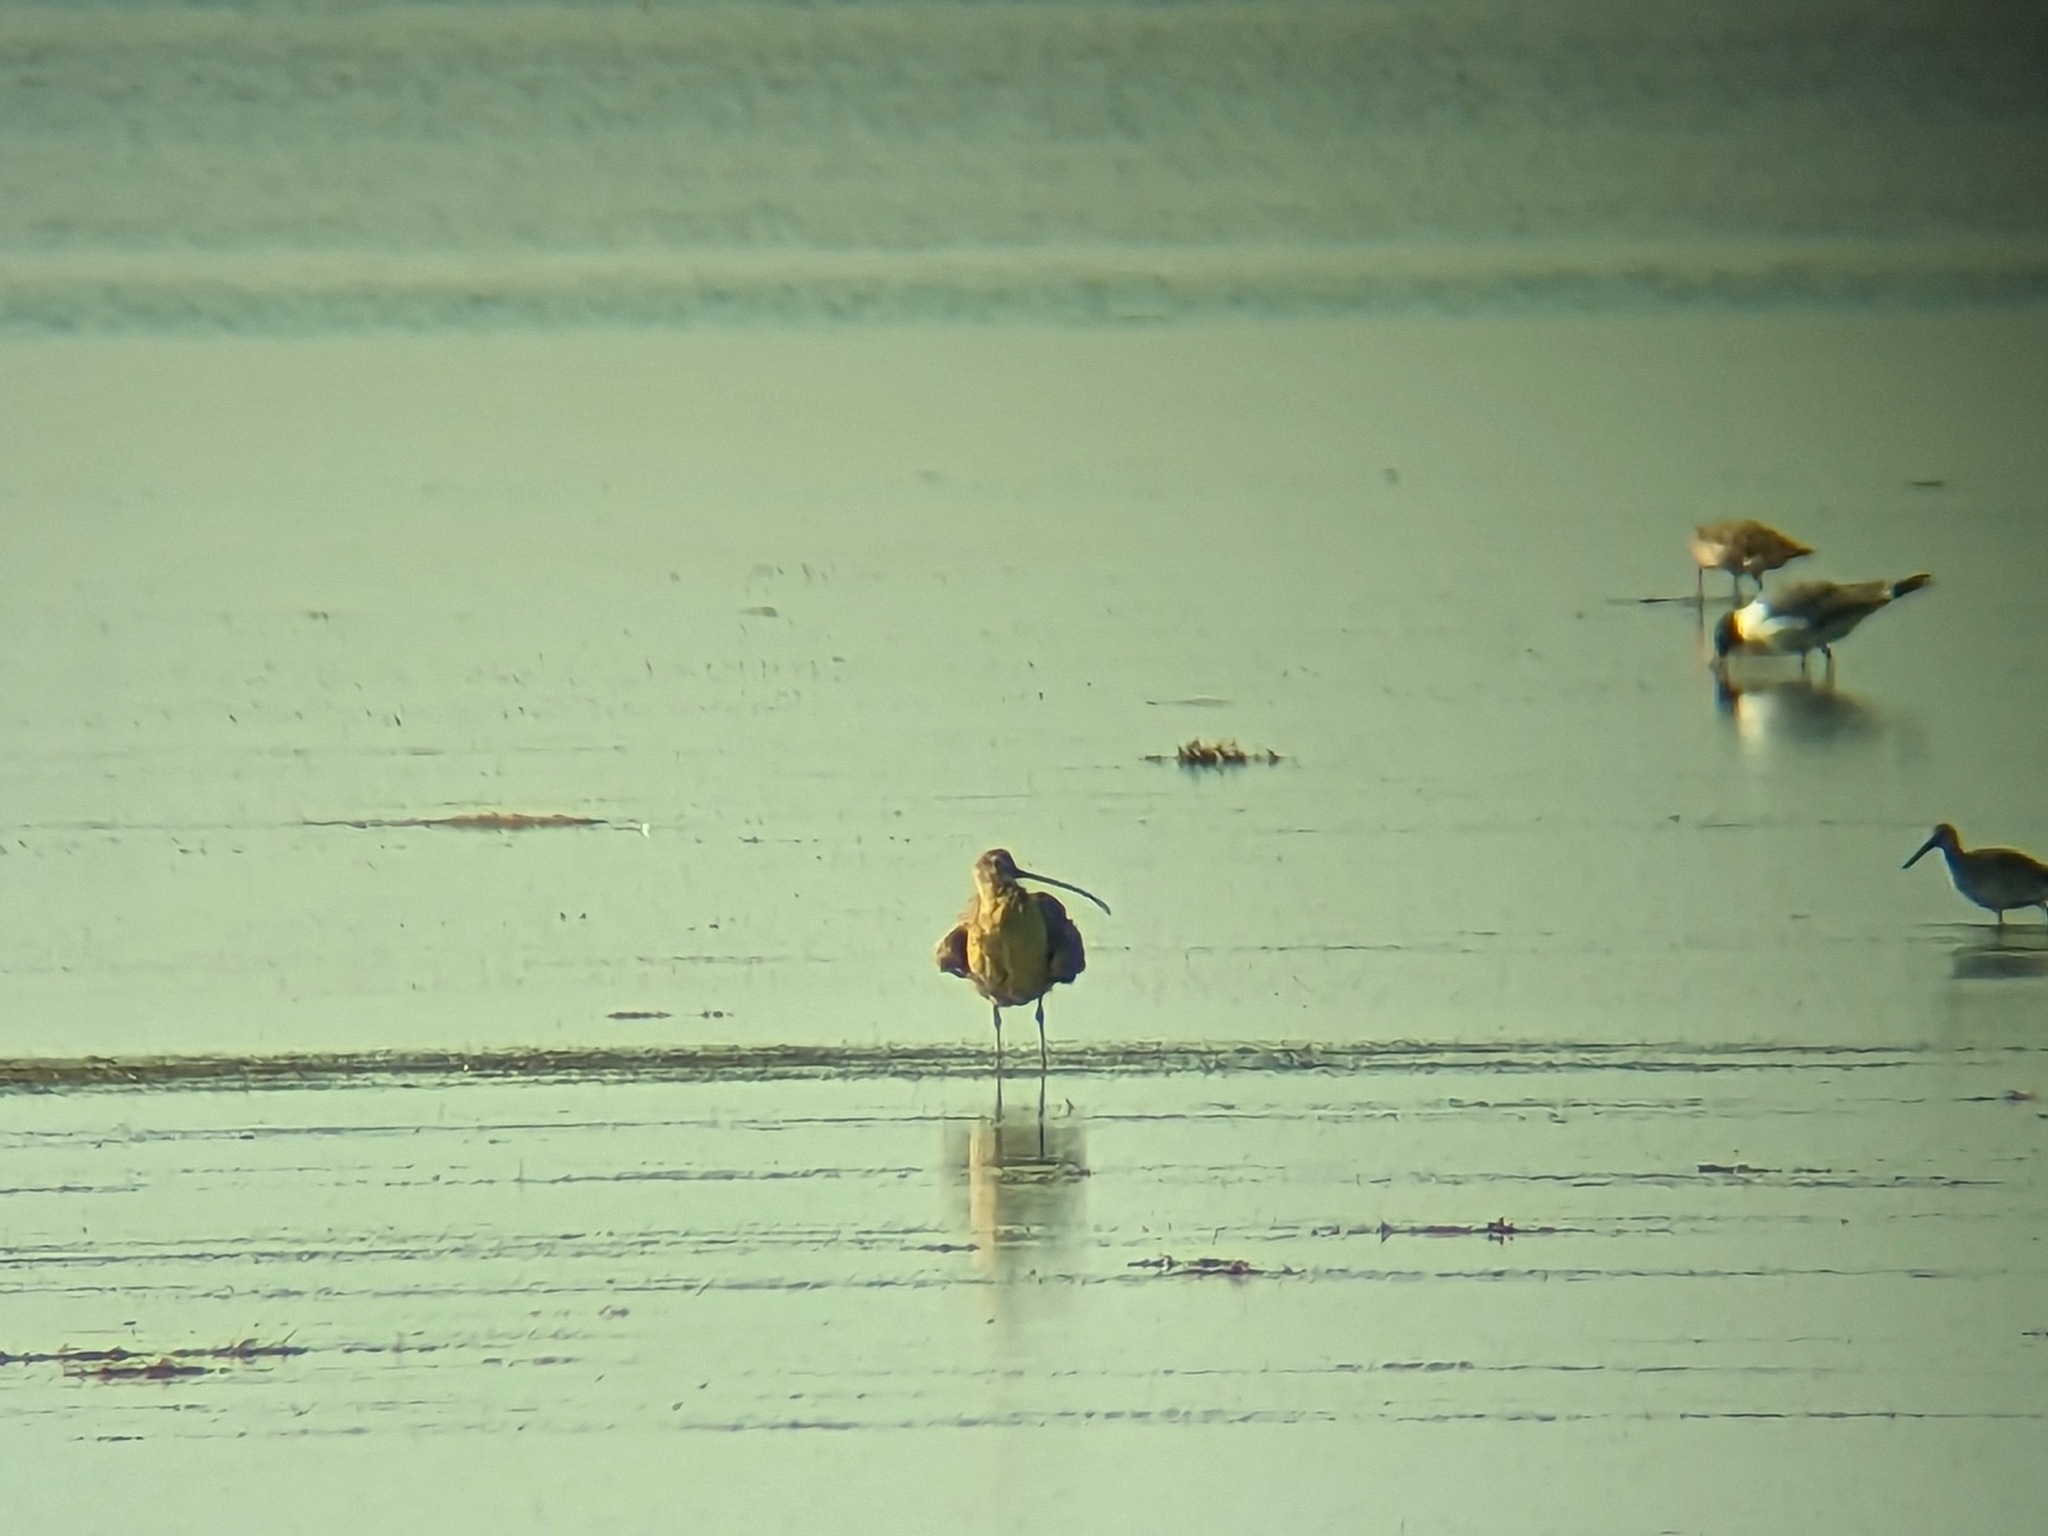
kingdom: Animalia
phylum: Chordata
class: Aves
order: Charadriiformes
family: Scolopacidae
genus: Numenius
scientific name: Numenius americanus
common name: Long-billed curlew
